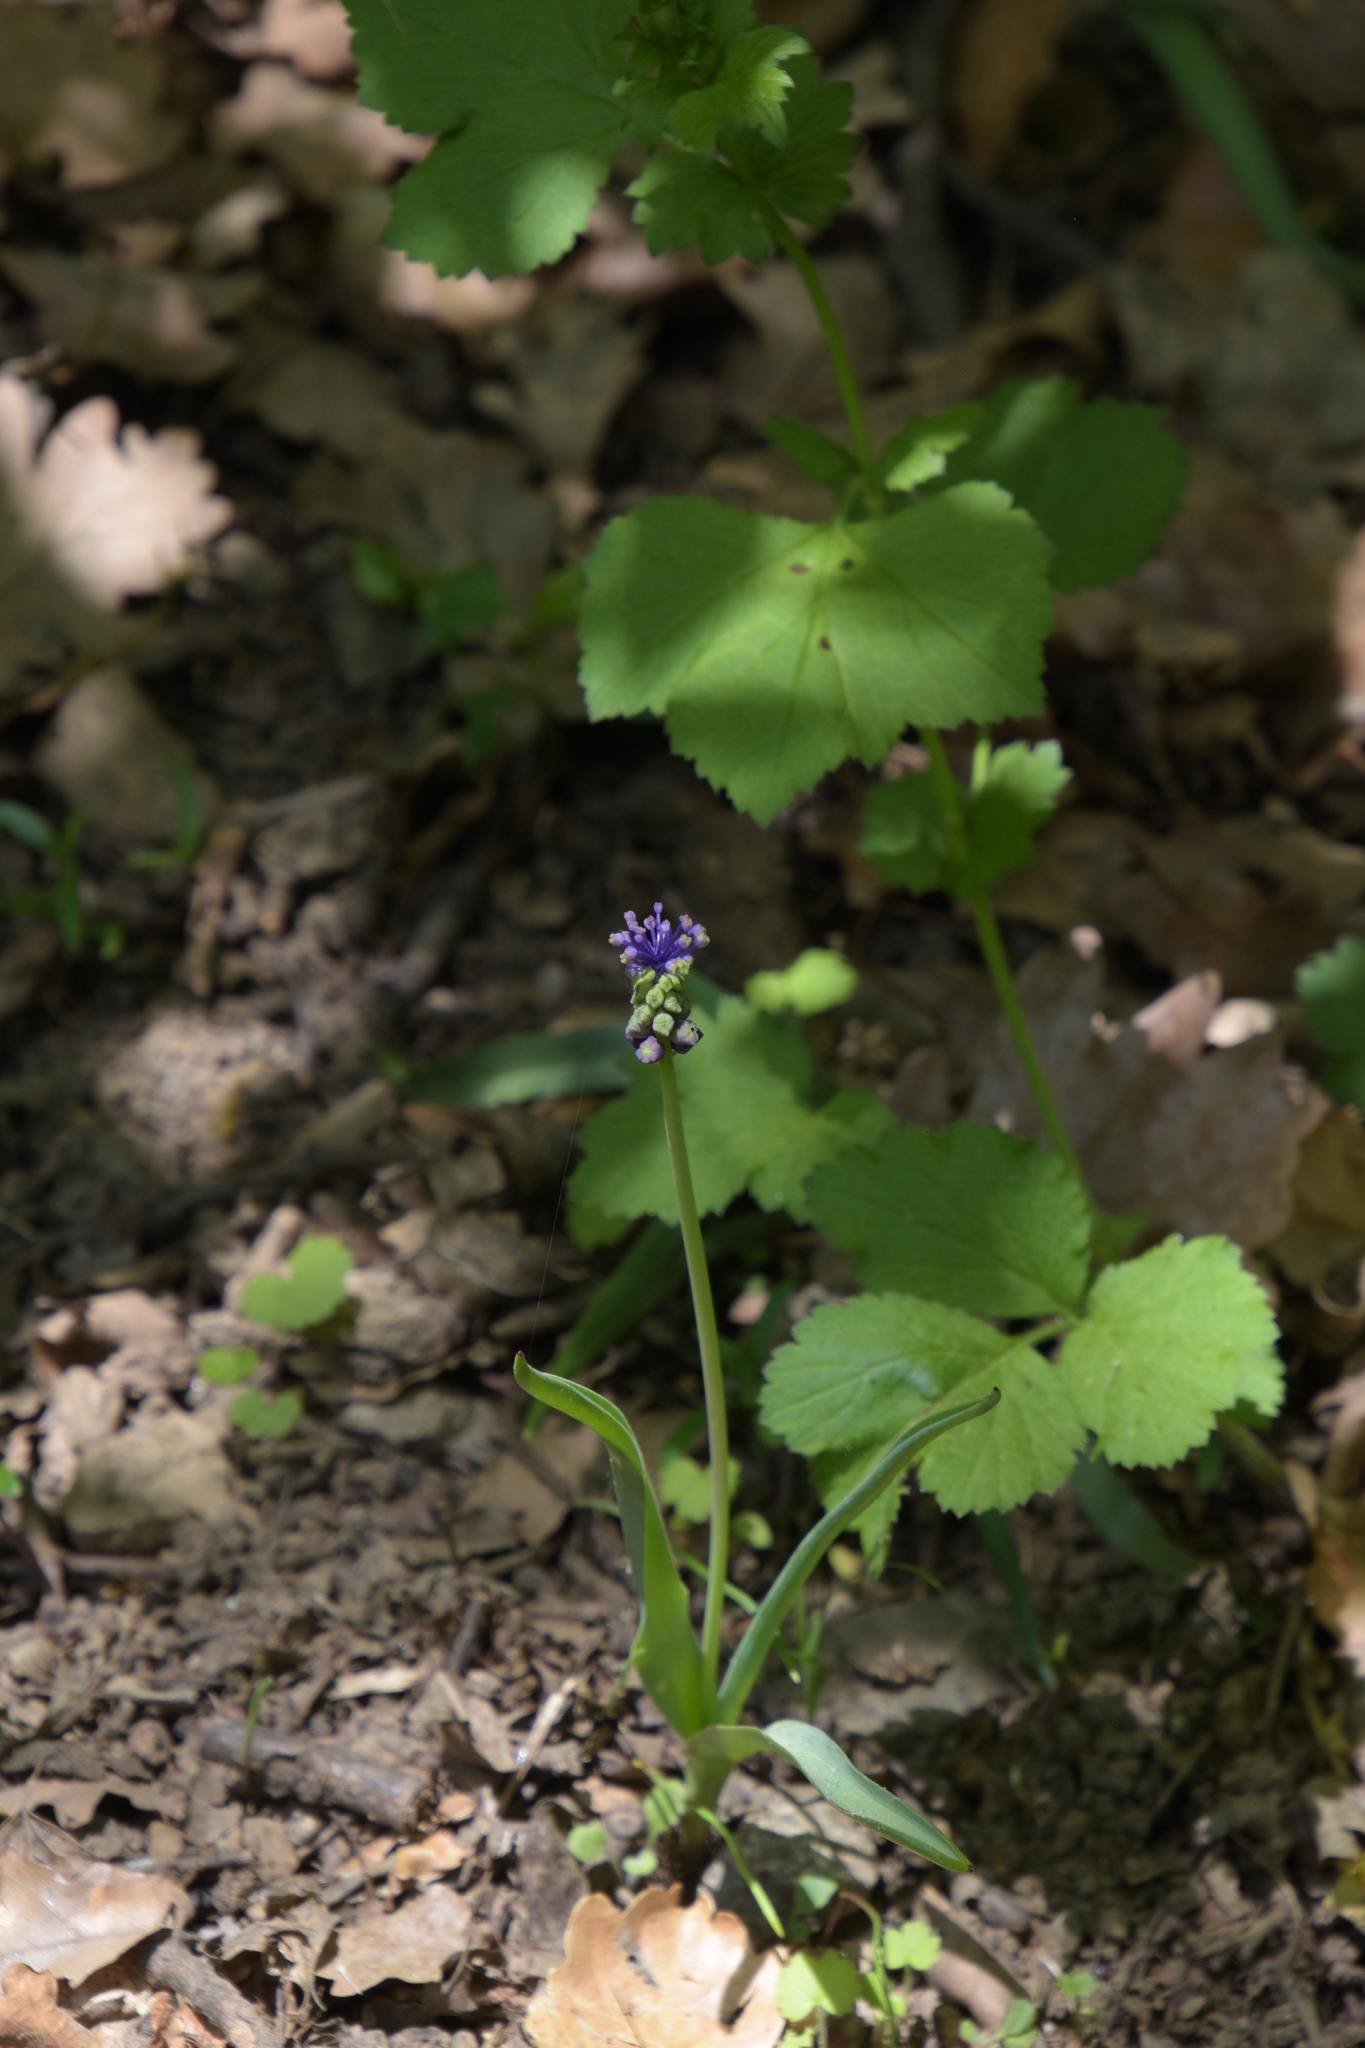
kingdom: Plantae
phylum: Tracheophyta
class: Liliopsida
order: Asparagales
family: Asparagaceae
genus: Muscari
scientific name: Muscari comosum
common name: Tassel hyacinth
